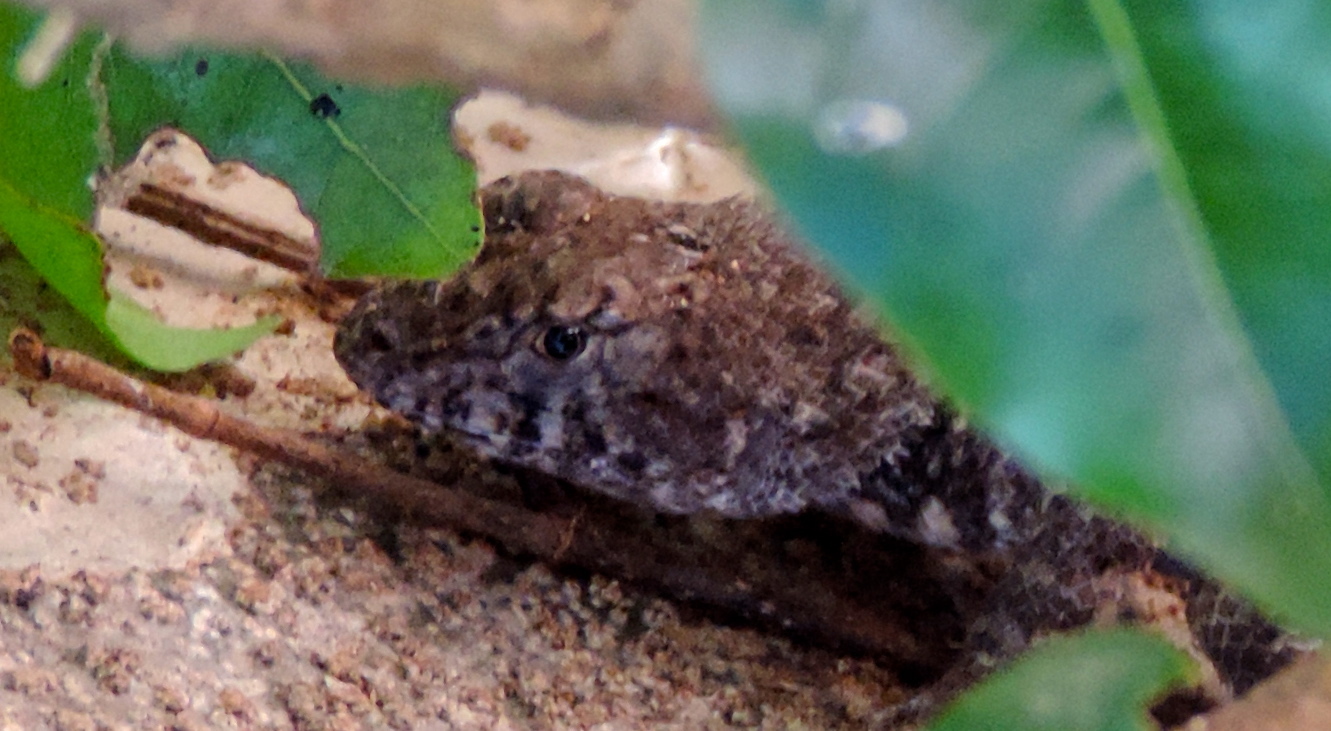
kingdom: Animalia
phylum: Chordata
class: Squamata
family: Phrynosomatidae
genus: Sceloporus
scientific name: Sceloporus nelsoni
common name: Nelson's spiny lizard
